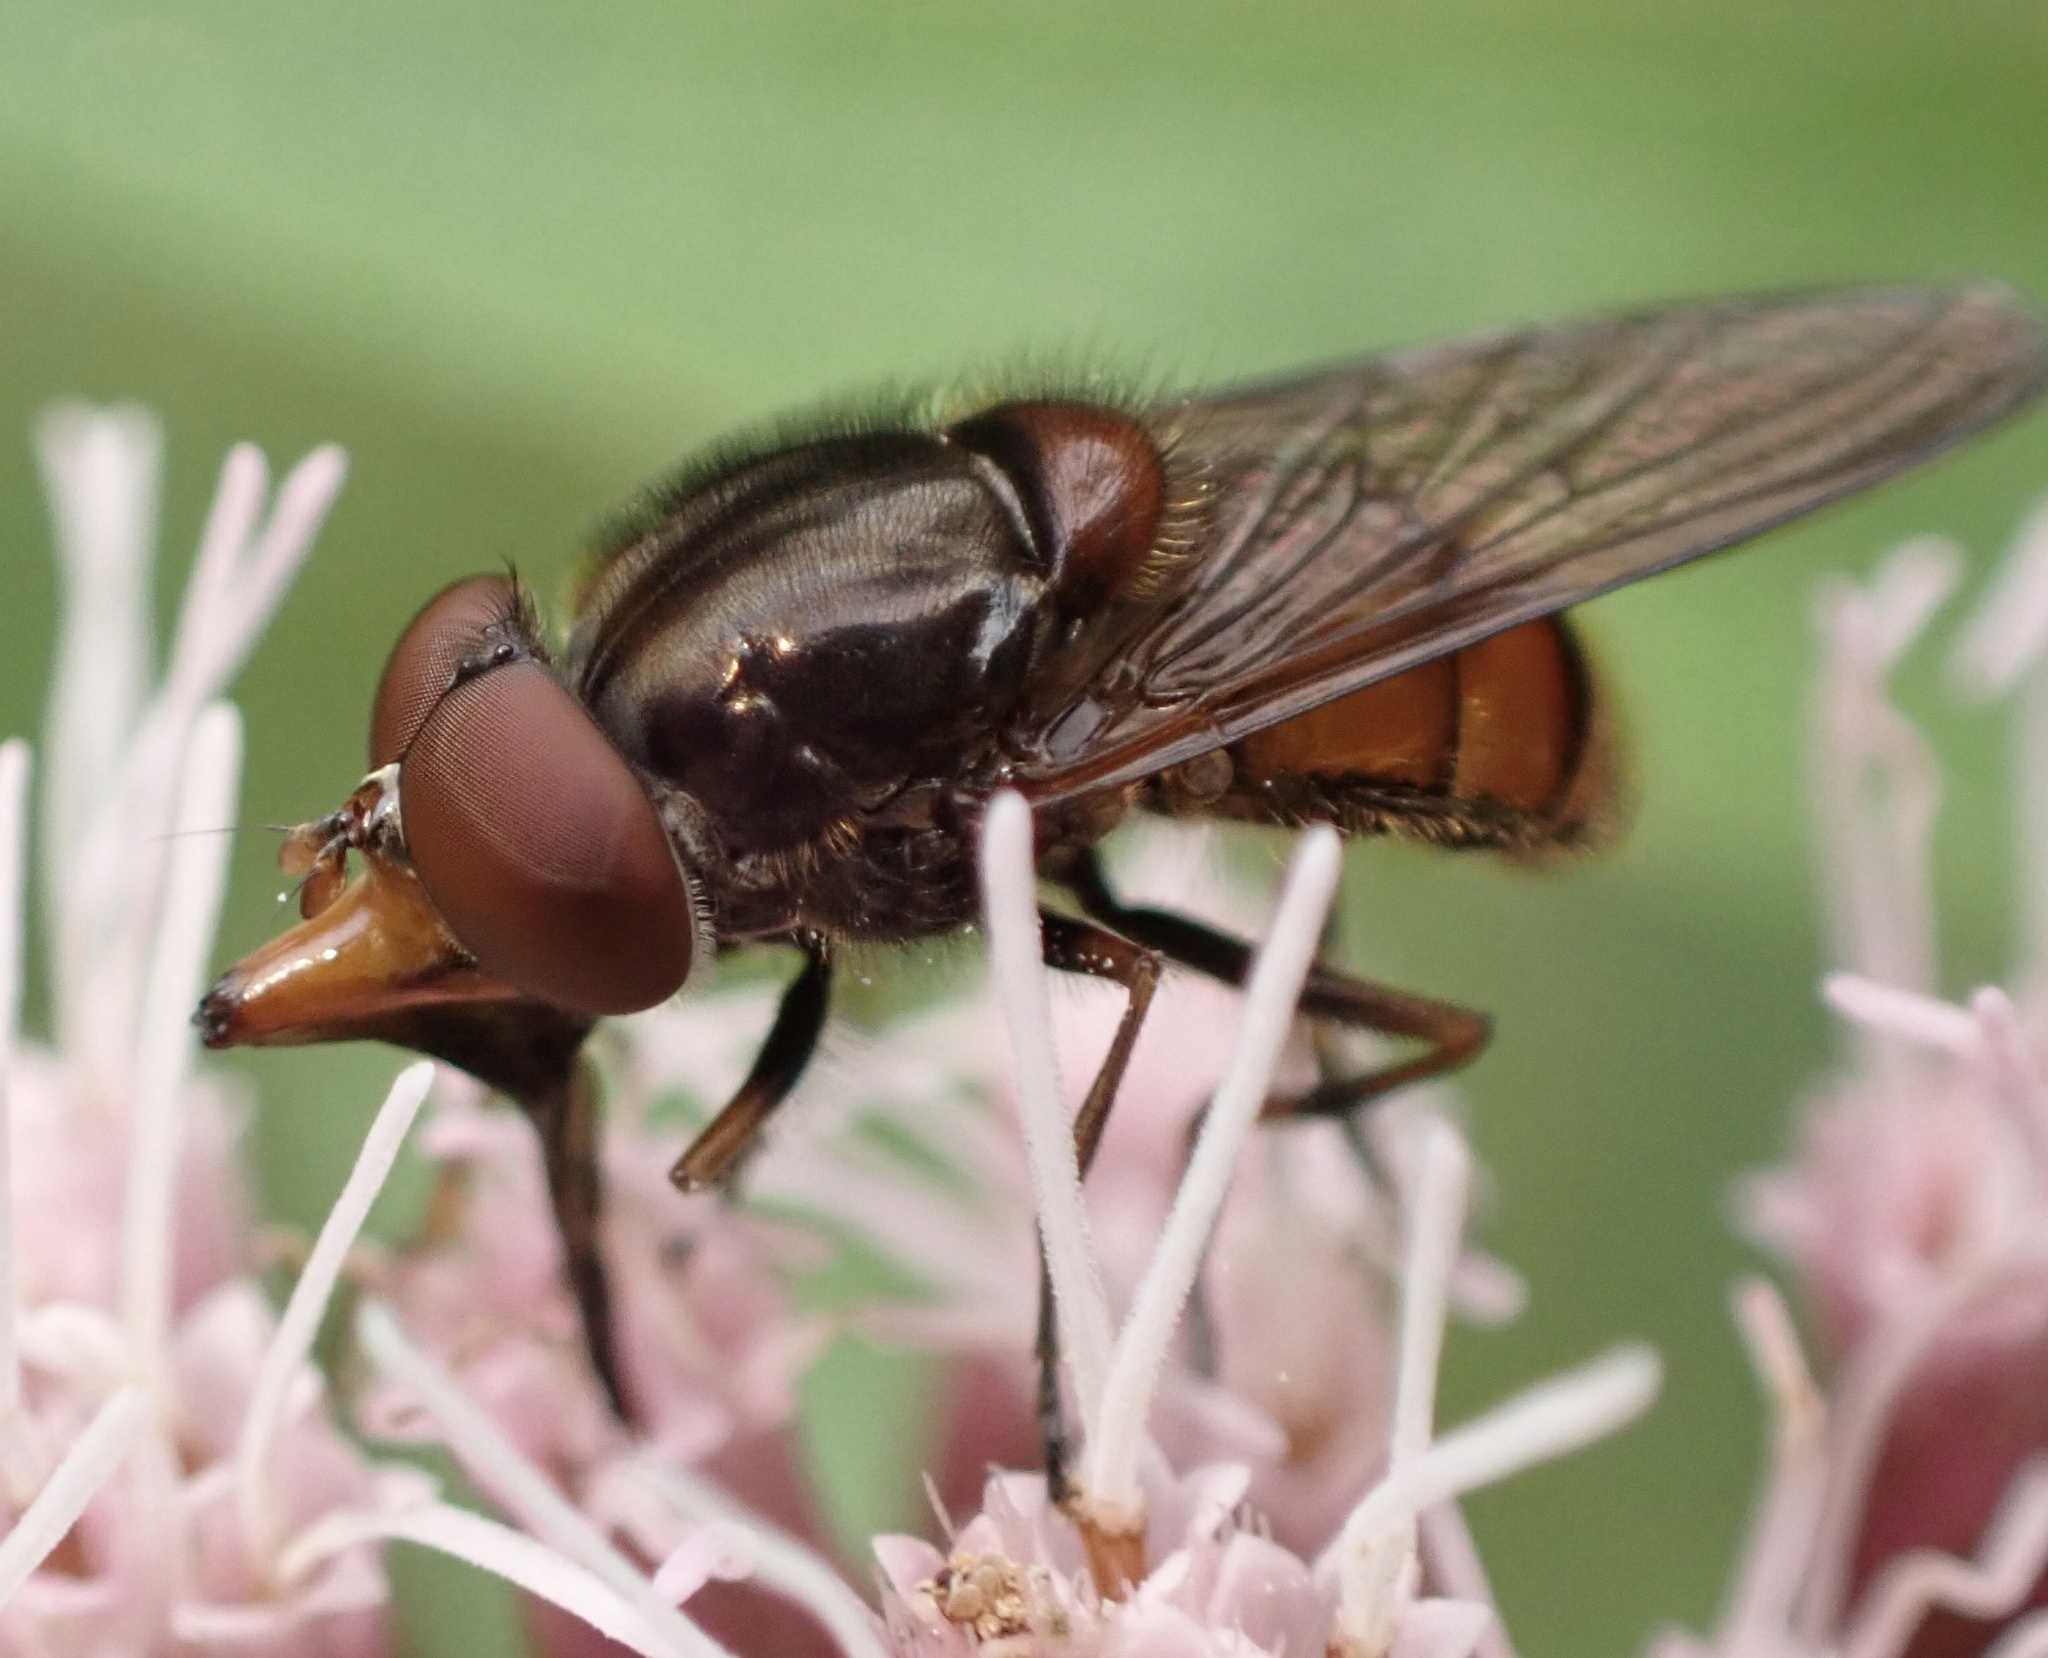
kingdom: Animalia
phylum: Arthropoda
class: Insecta
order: Diptera
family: Syrphidae
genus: Rhingia
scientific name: Rhingia campestris
